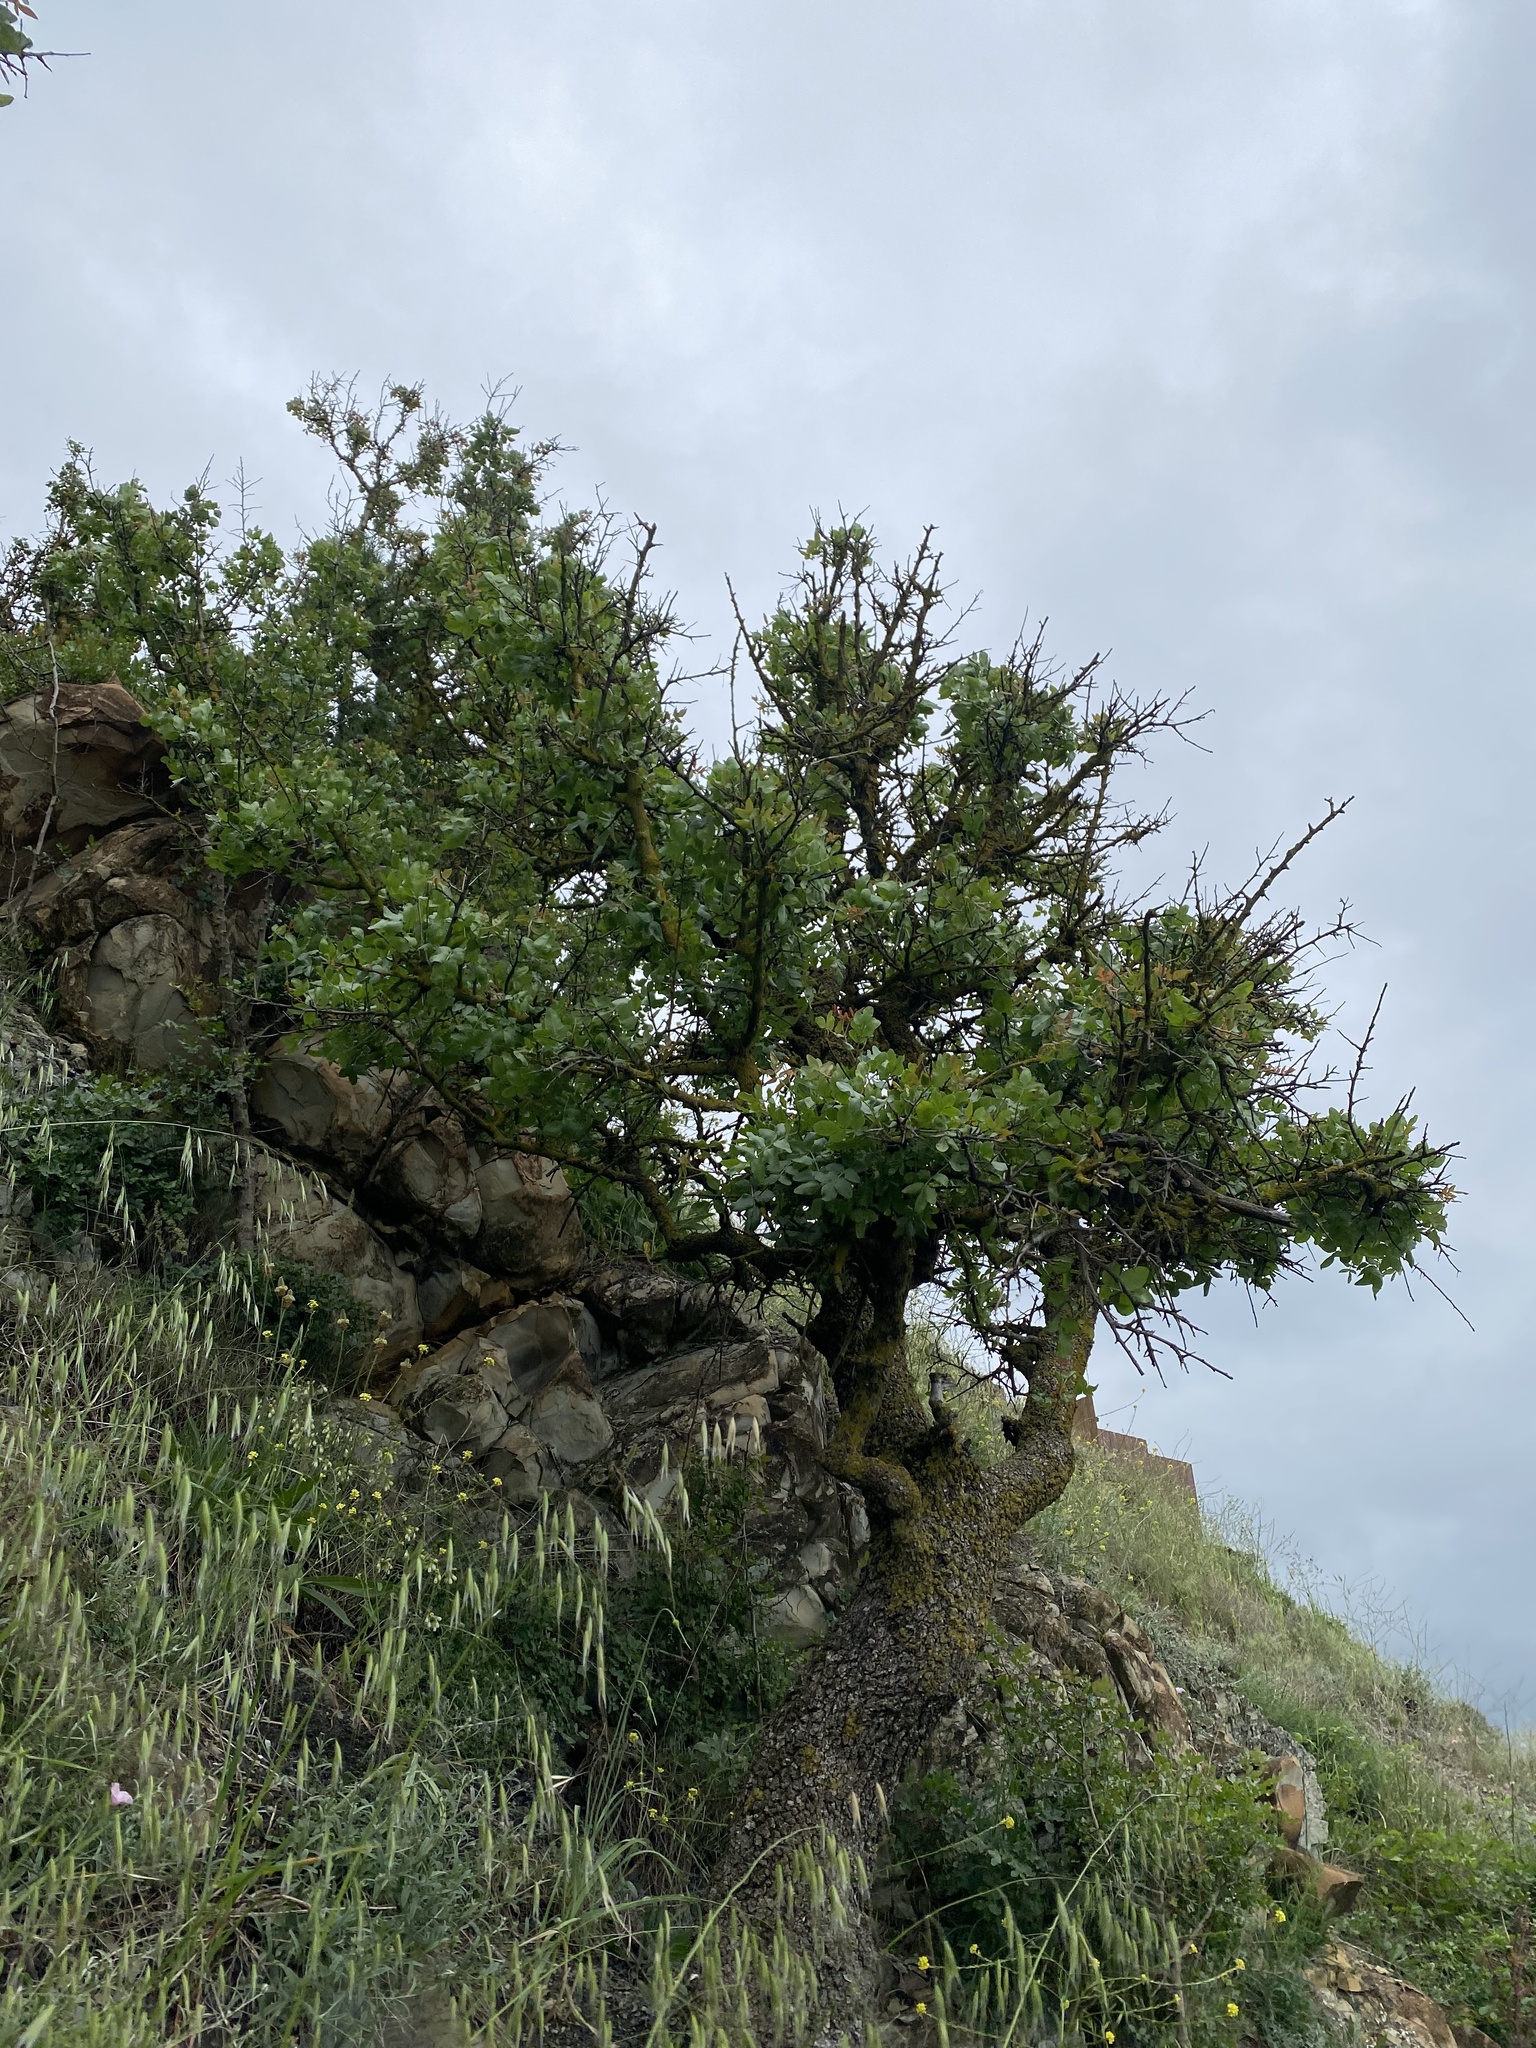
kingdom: Plantae
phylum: Tracheophyta
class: Magnoliopsida
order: Sapindales
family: Anacardiaceae
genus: Pistacia
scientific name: Pistacia atlantica
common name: Mt. atlas mastic tree
